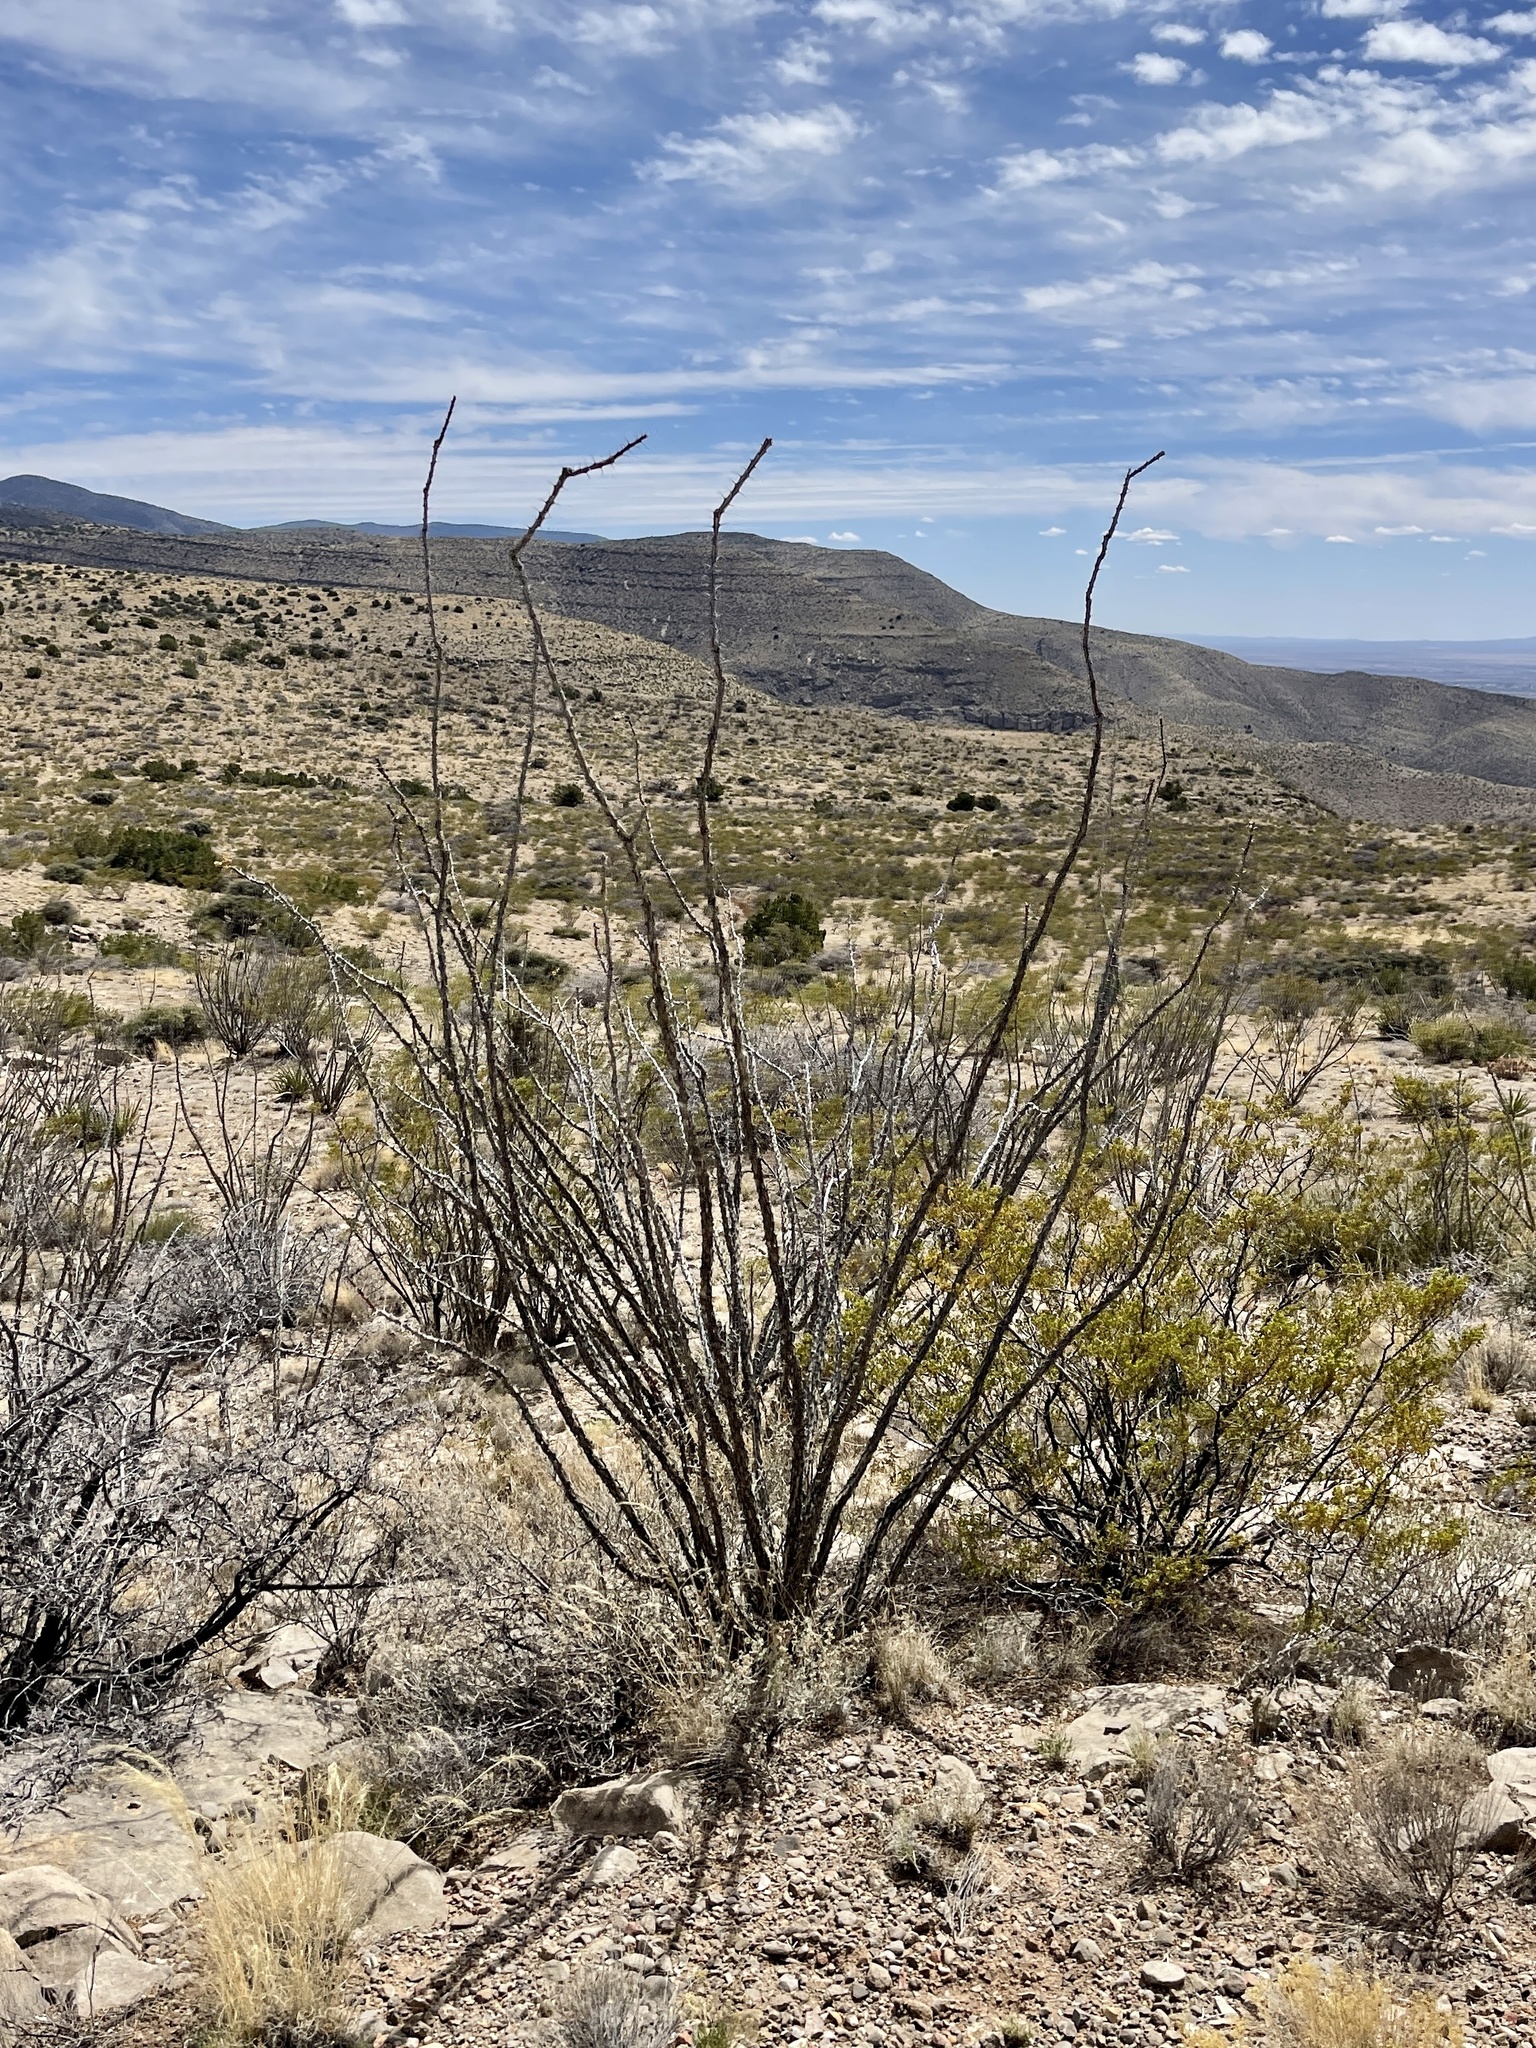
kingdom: Plantae
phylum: Tracheophyta
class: Magnoliopsida
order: Ericales
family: Fouquieriaceae
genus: Fouquieria
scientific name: Fouquieria splendens
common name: Vine-cactus
